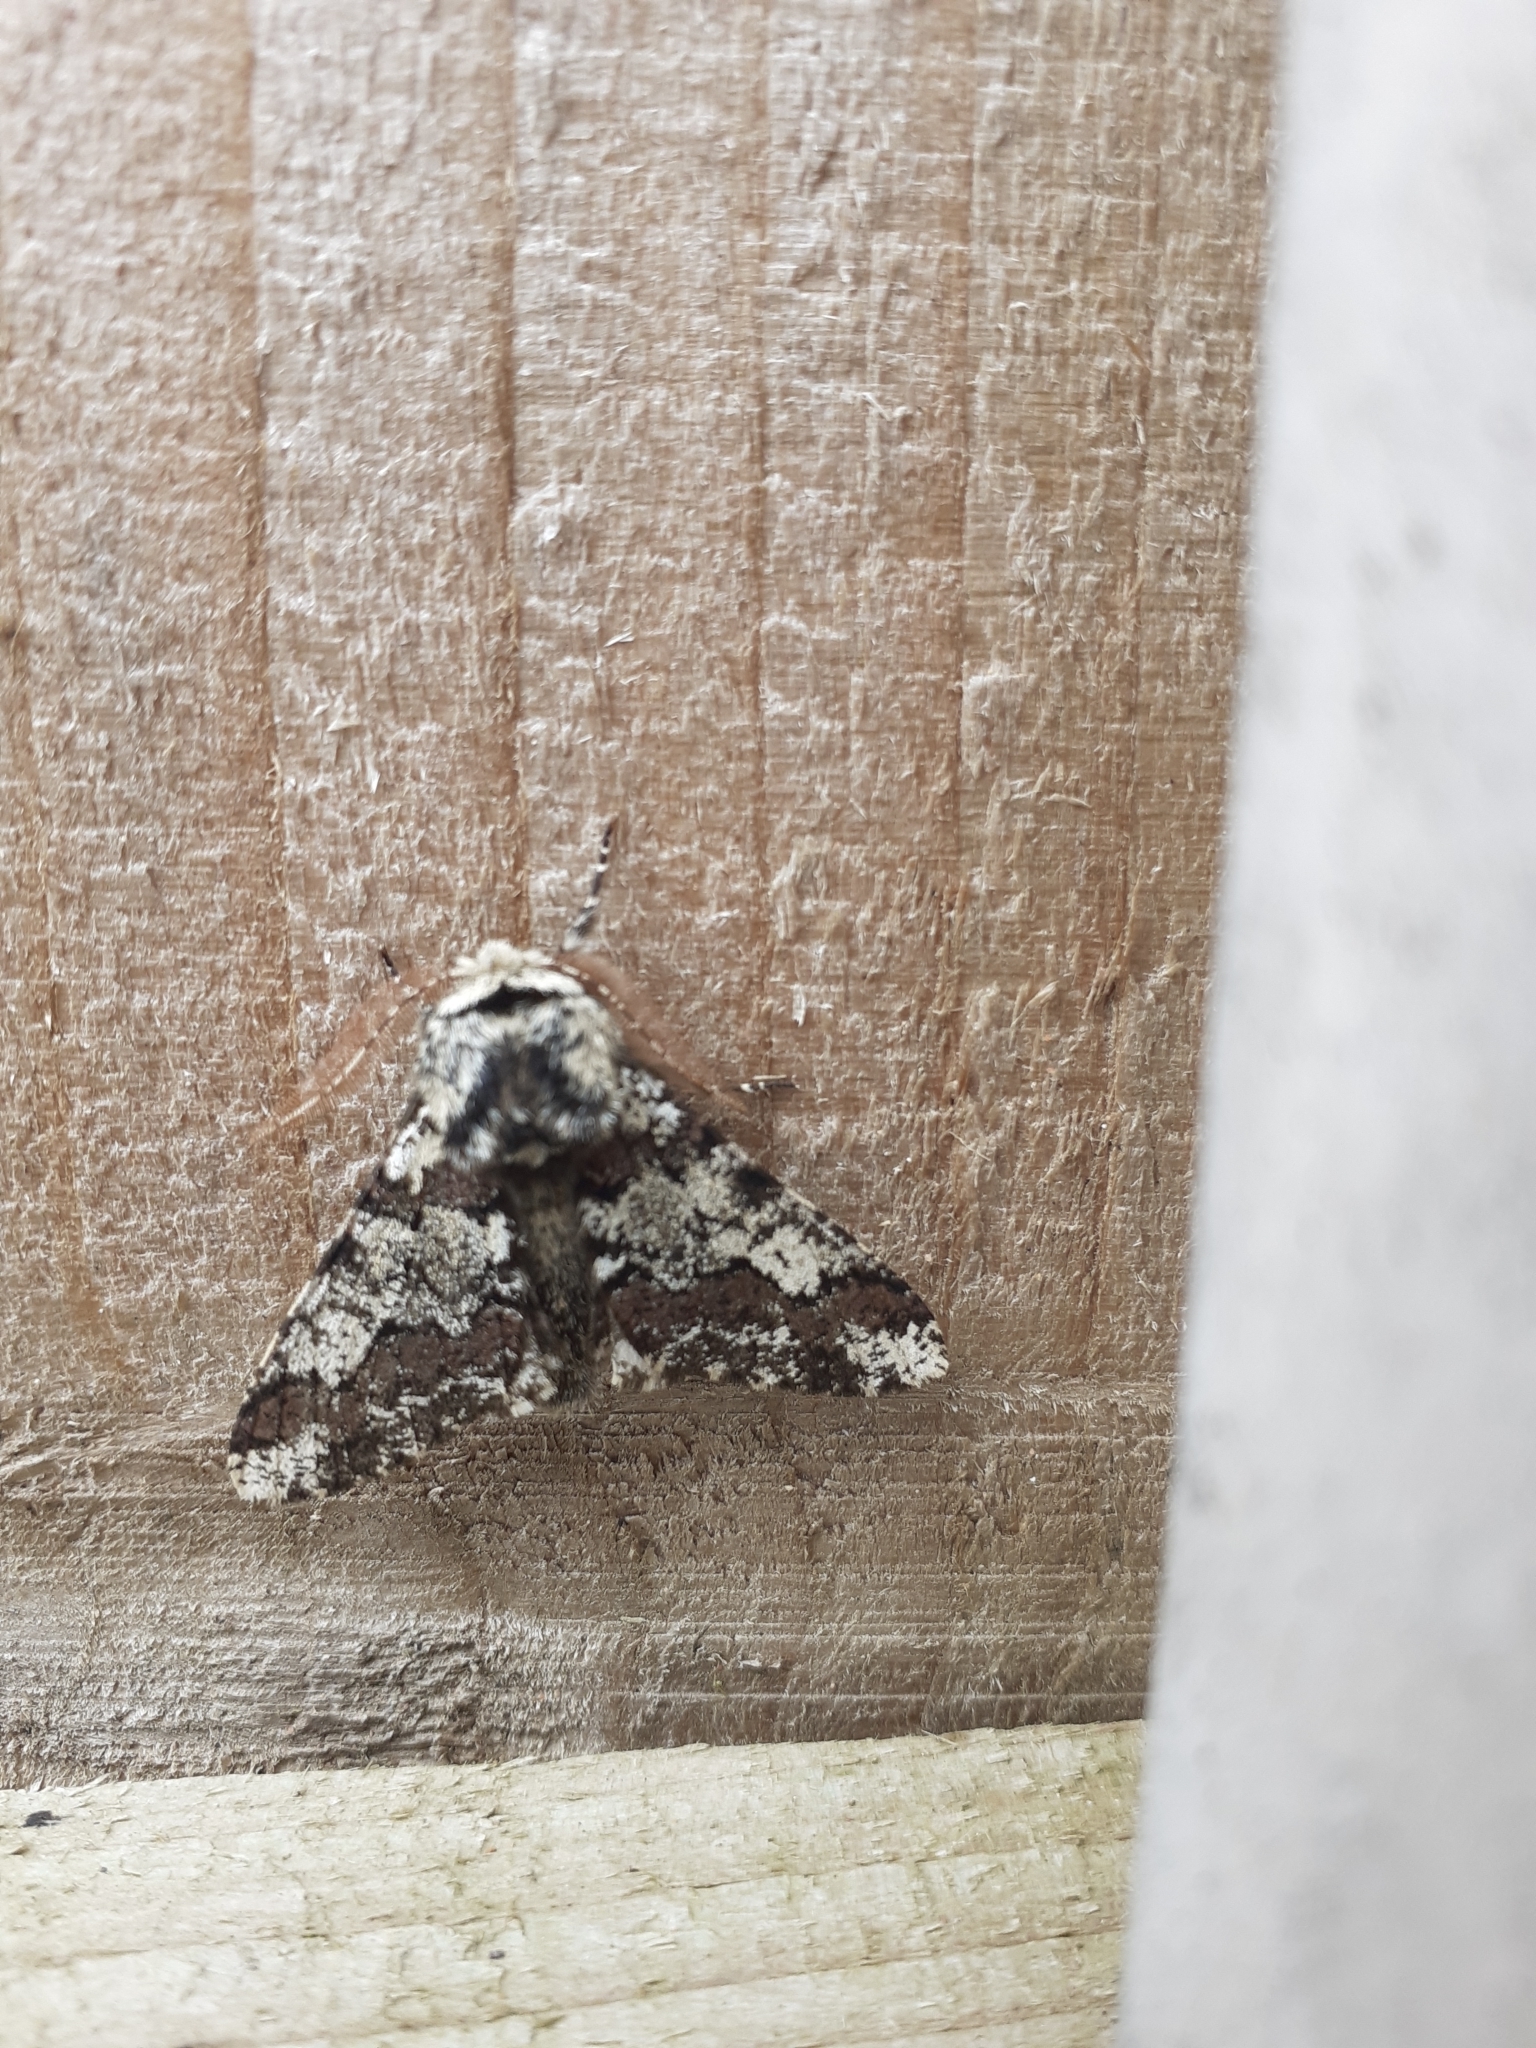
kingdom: Animalia
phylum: Arthropoda
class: Insecta
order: Lepidoptera
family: Geometridae
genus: Biston
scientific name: Biston strataria
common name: Oak beauty
